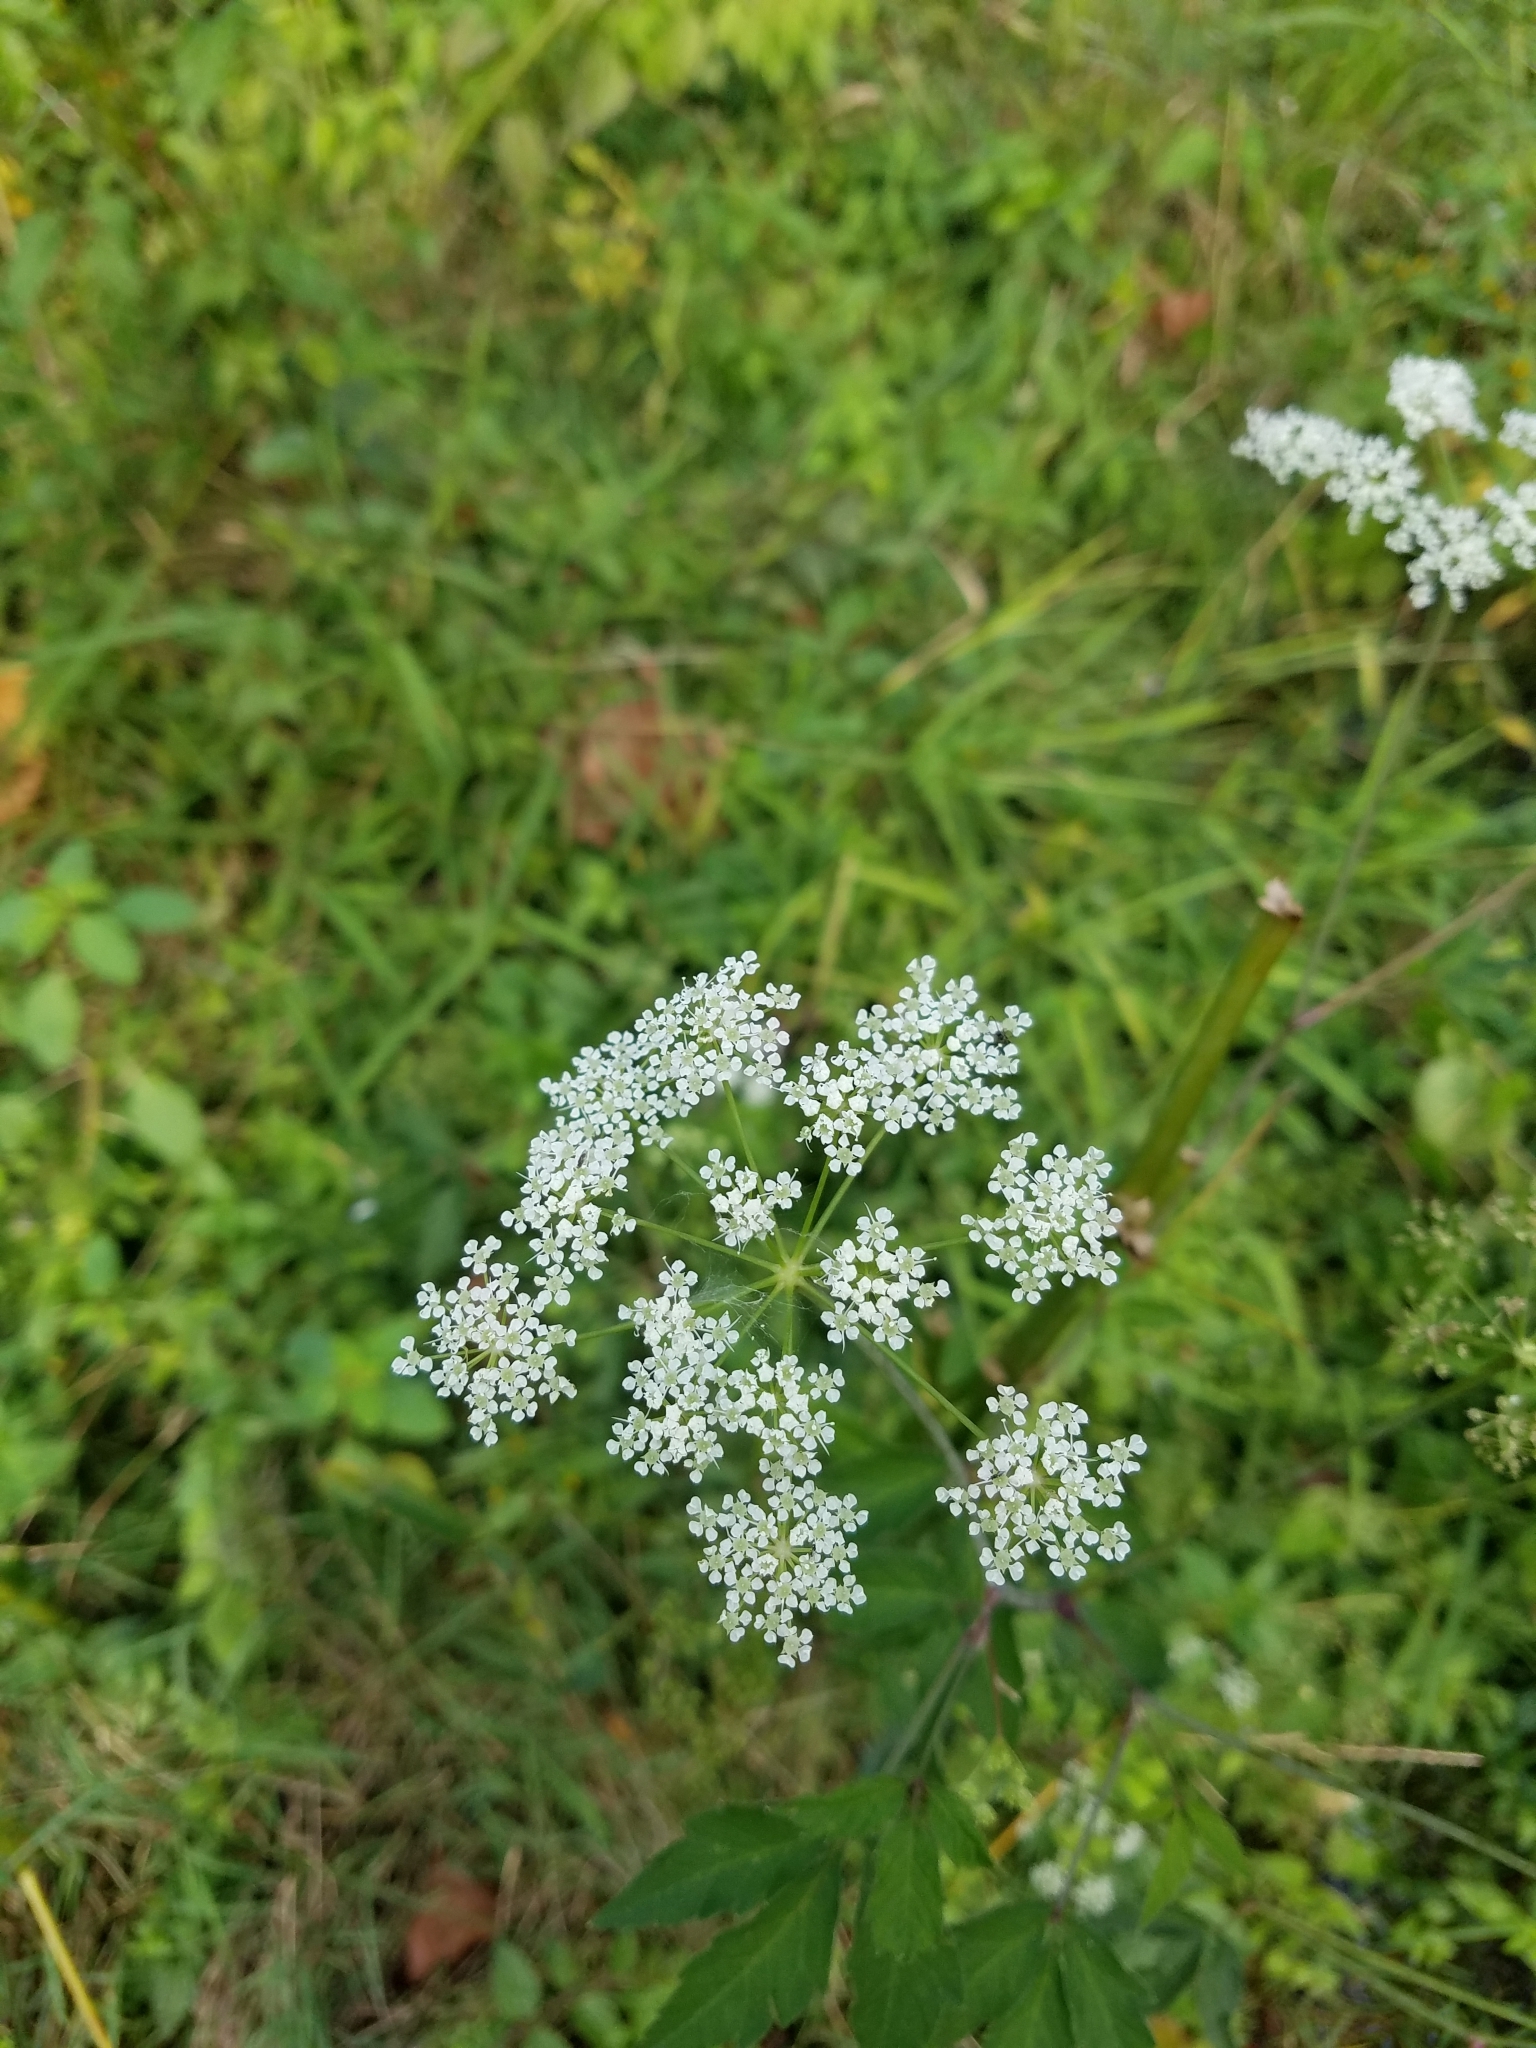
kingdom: Plantae
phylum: Tracheophyta
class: Magnoliopsida
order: Apiales
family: Apiaceae
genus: Cicuta
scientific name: Cicuta maculata
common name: Spotted cowbane
